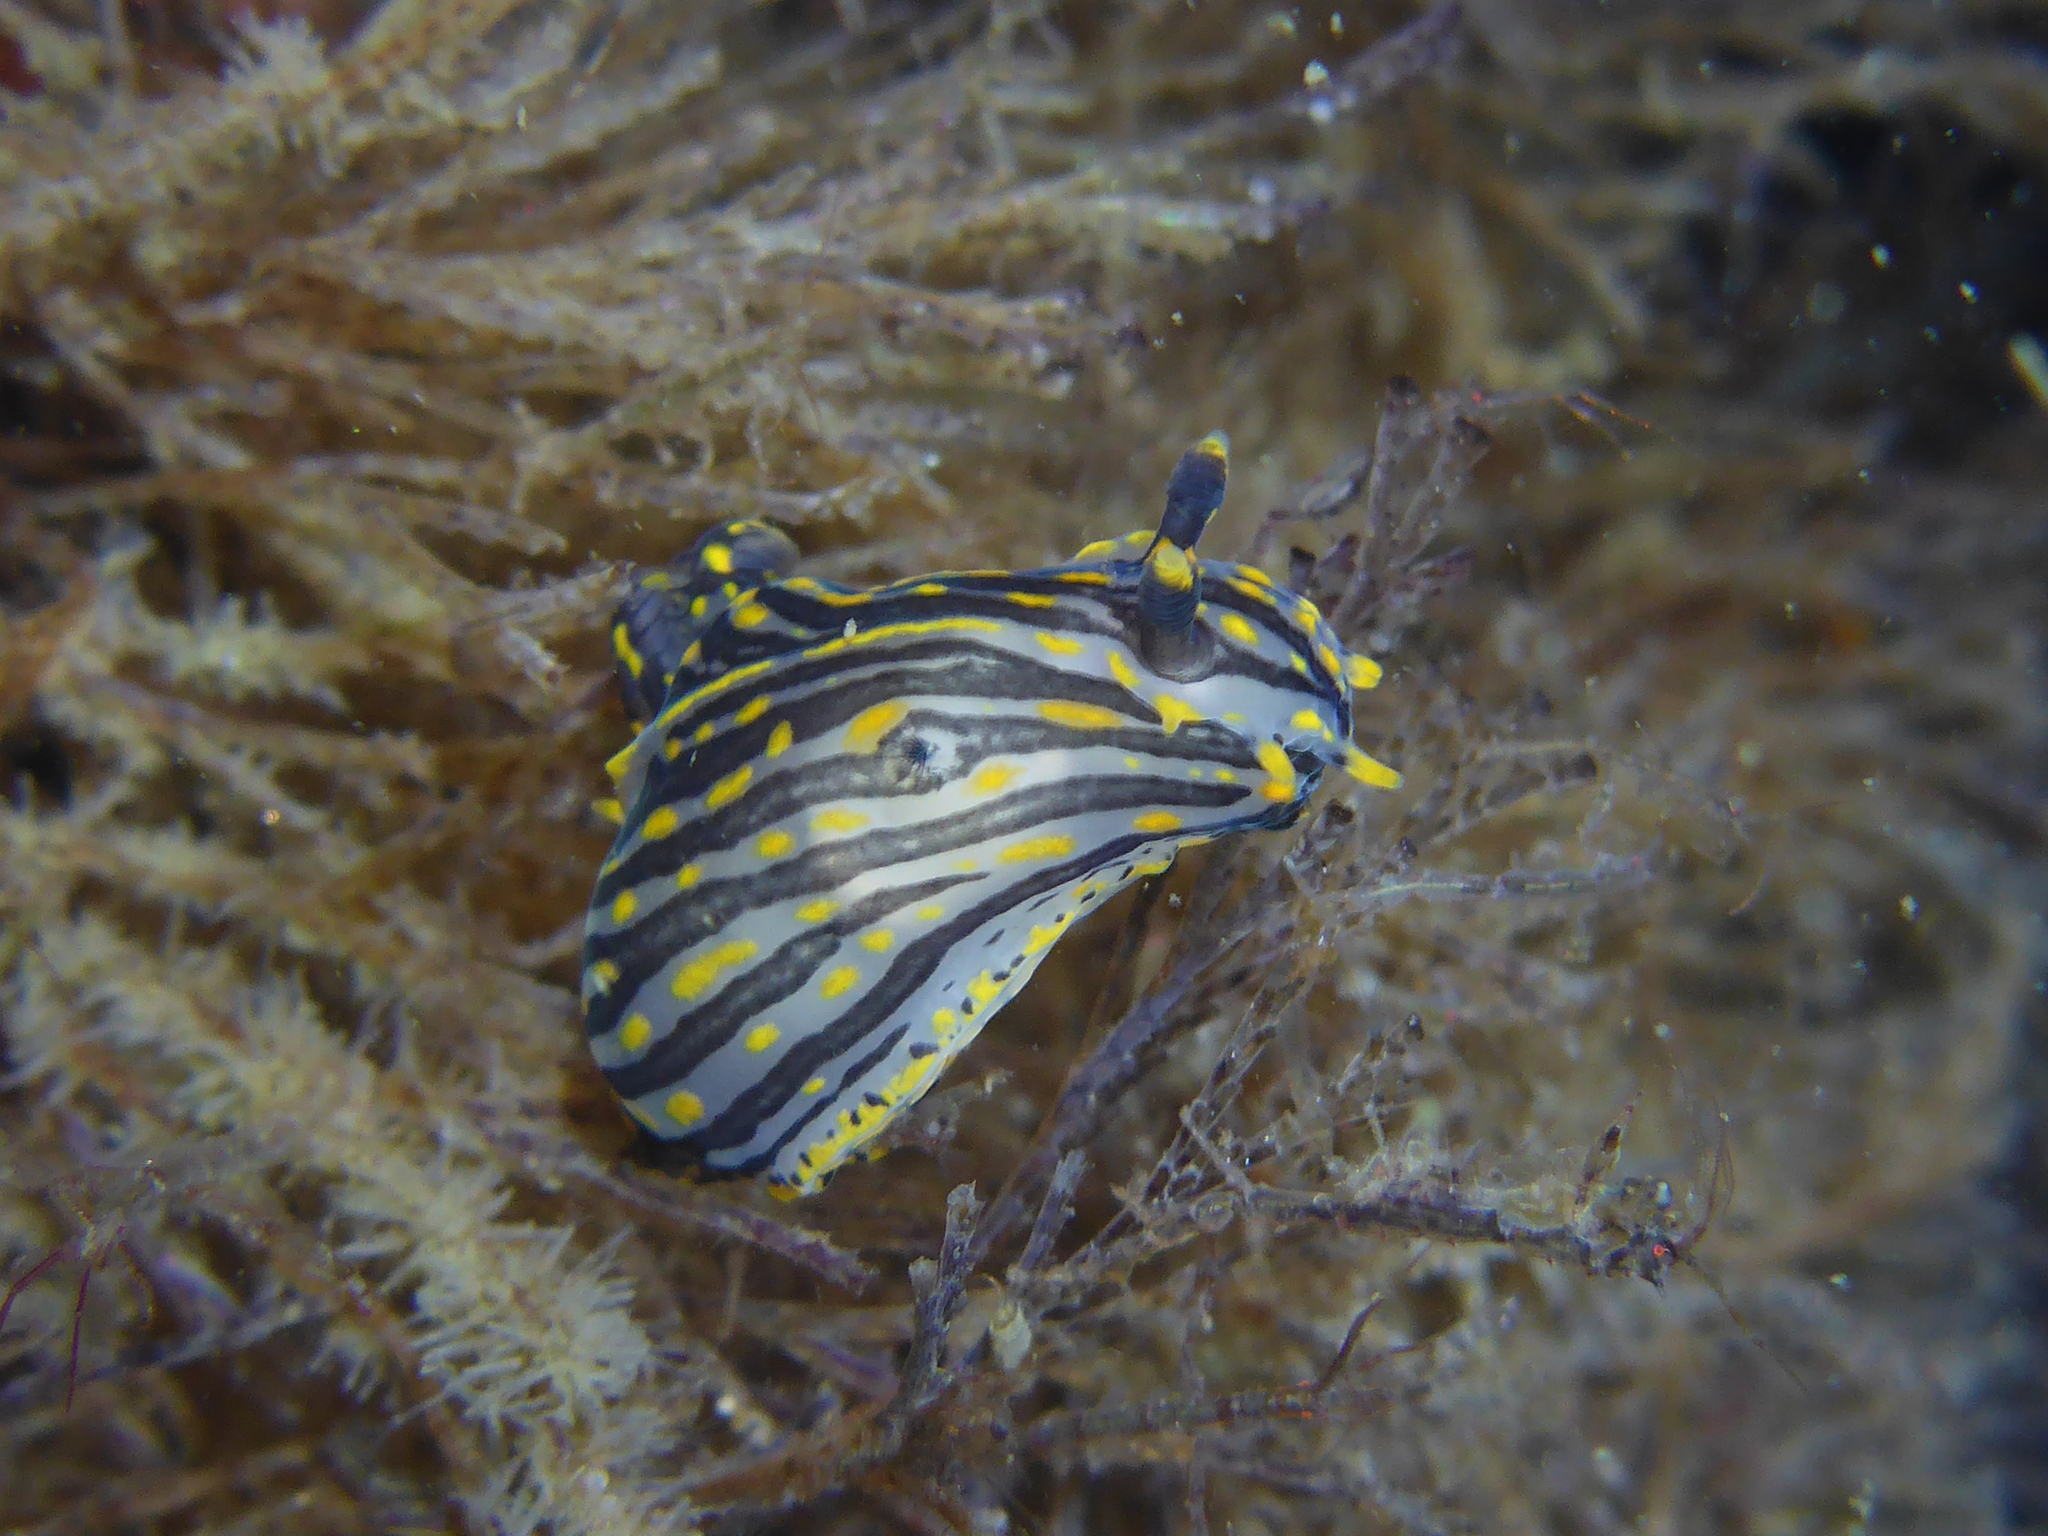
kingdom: Animalia
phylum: Mollusca
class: Gastropoda
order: Nudibranchia
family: Polyceridae
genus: Polycera
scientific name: Polycera atra
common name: Orange-spike polycera
